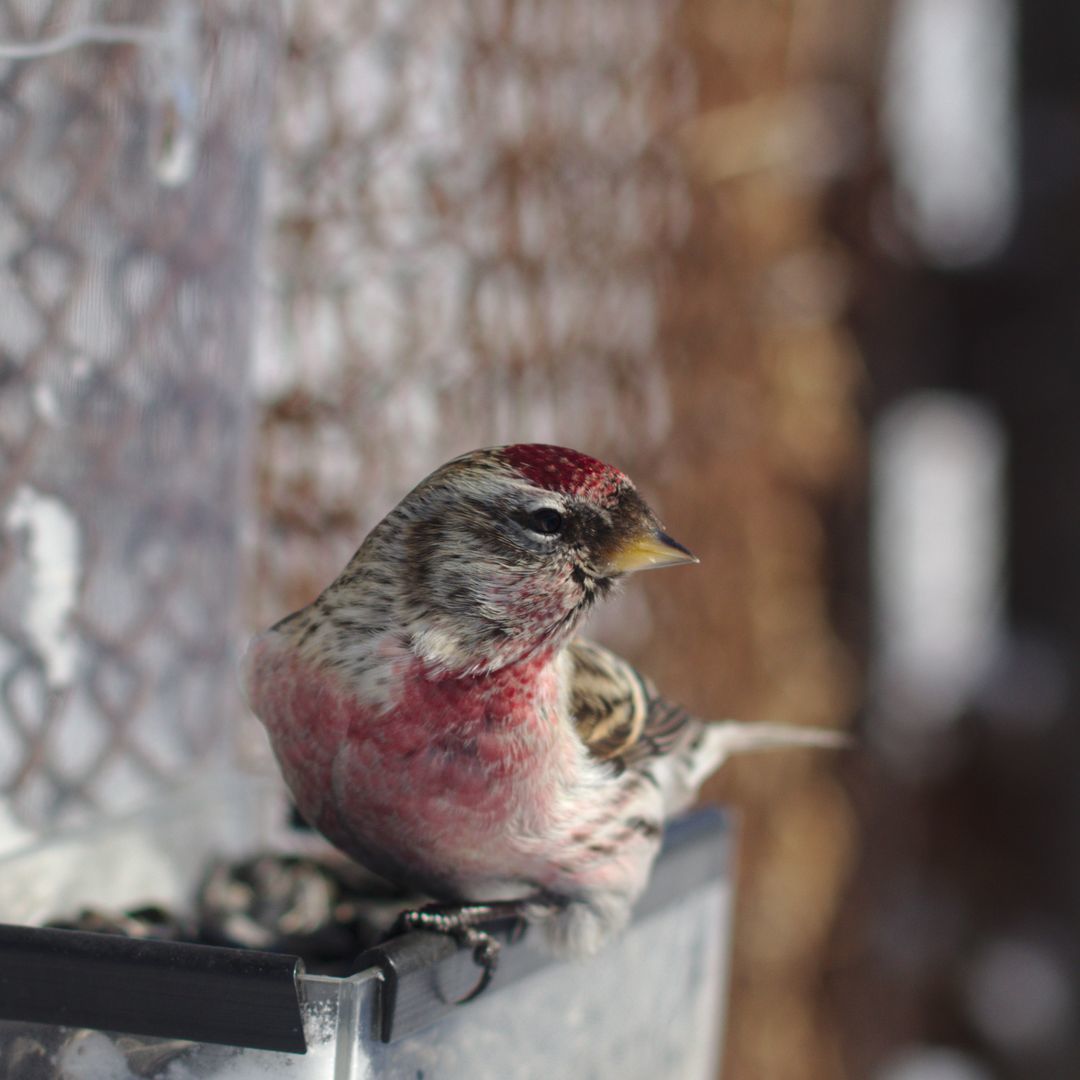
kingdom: Animalia
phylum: Chordata
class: Aves
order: Passeriformes
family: Fringillidae
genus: Acanthis
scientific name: Acanthis flammea
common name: Common redpoll
